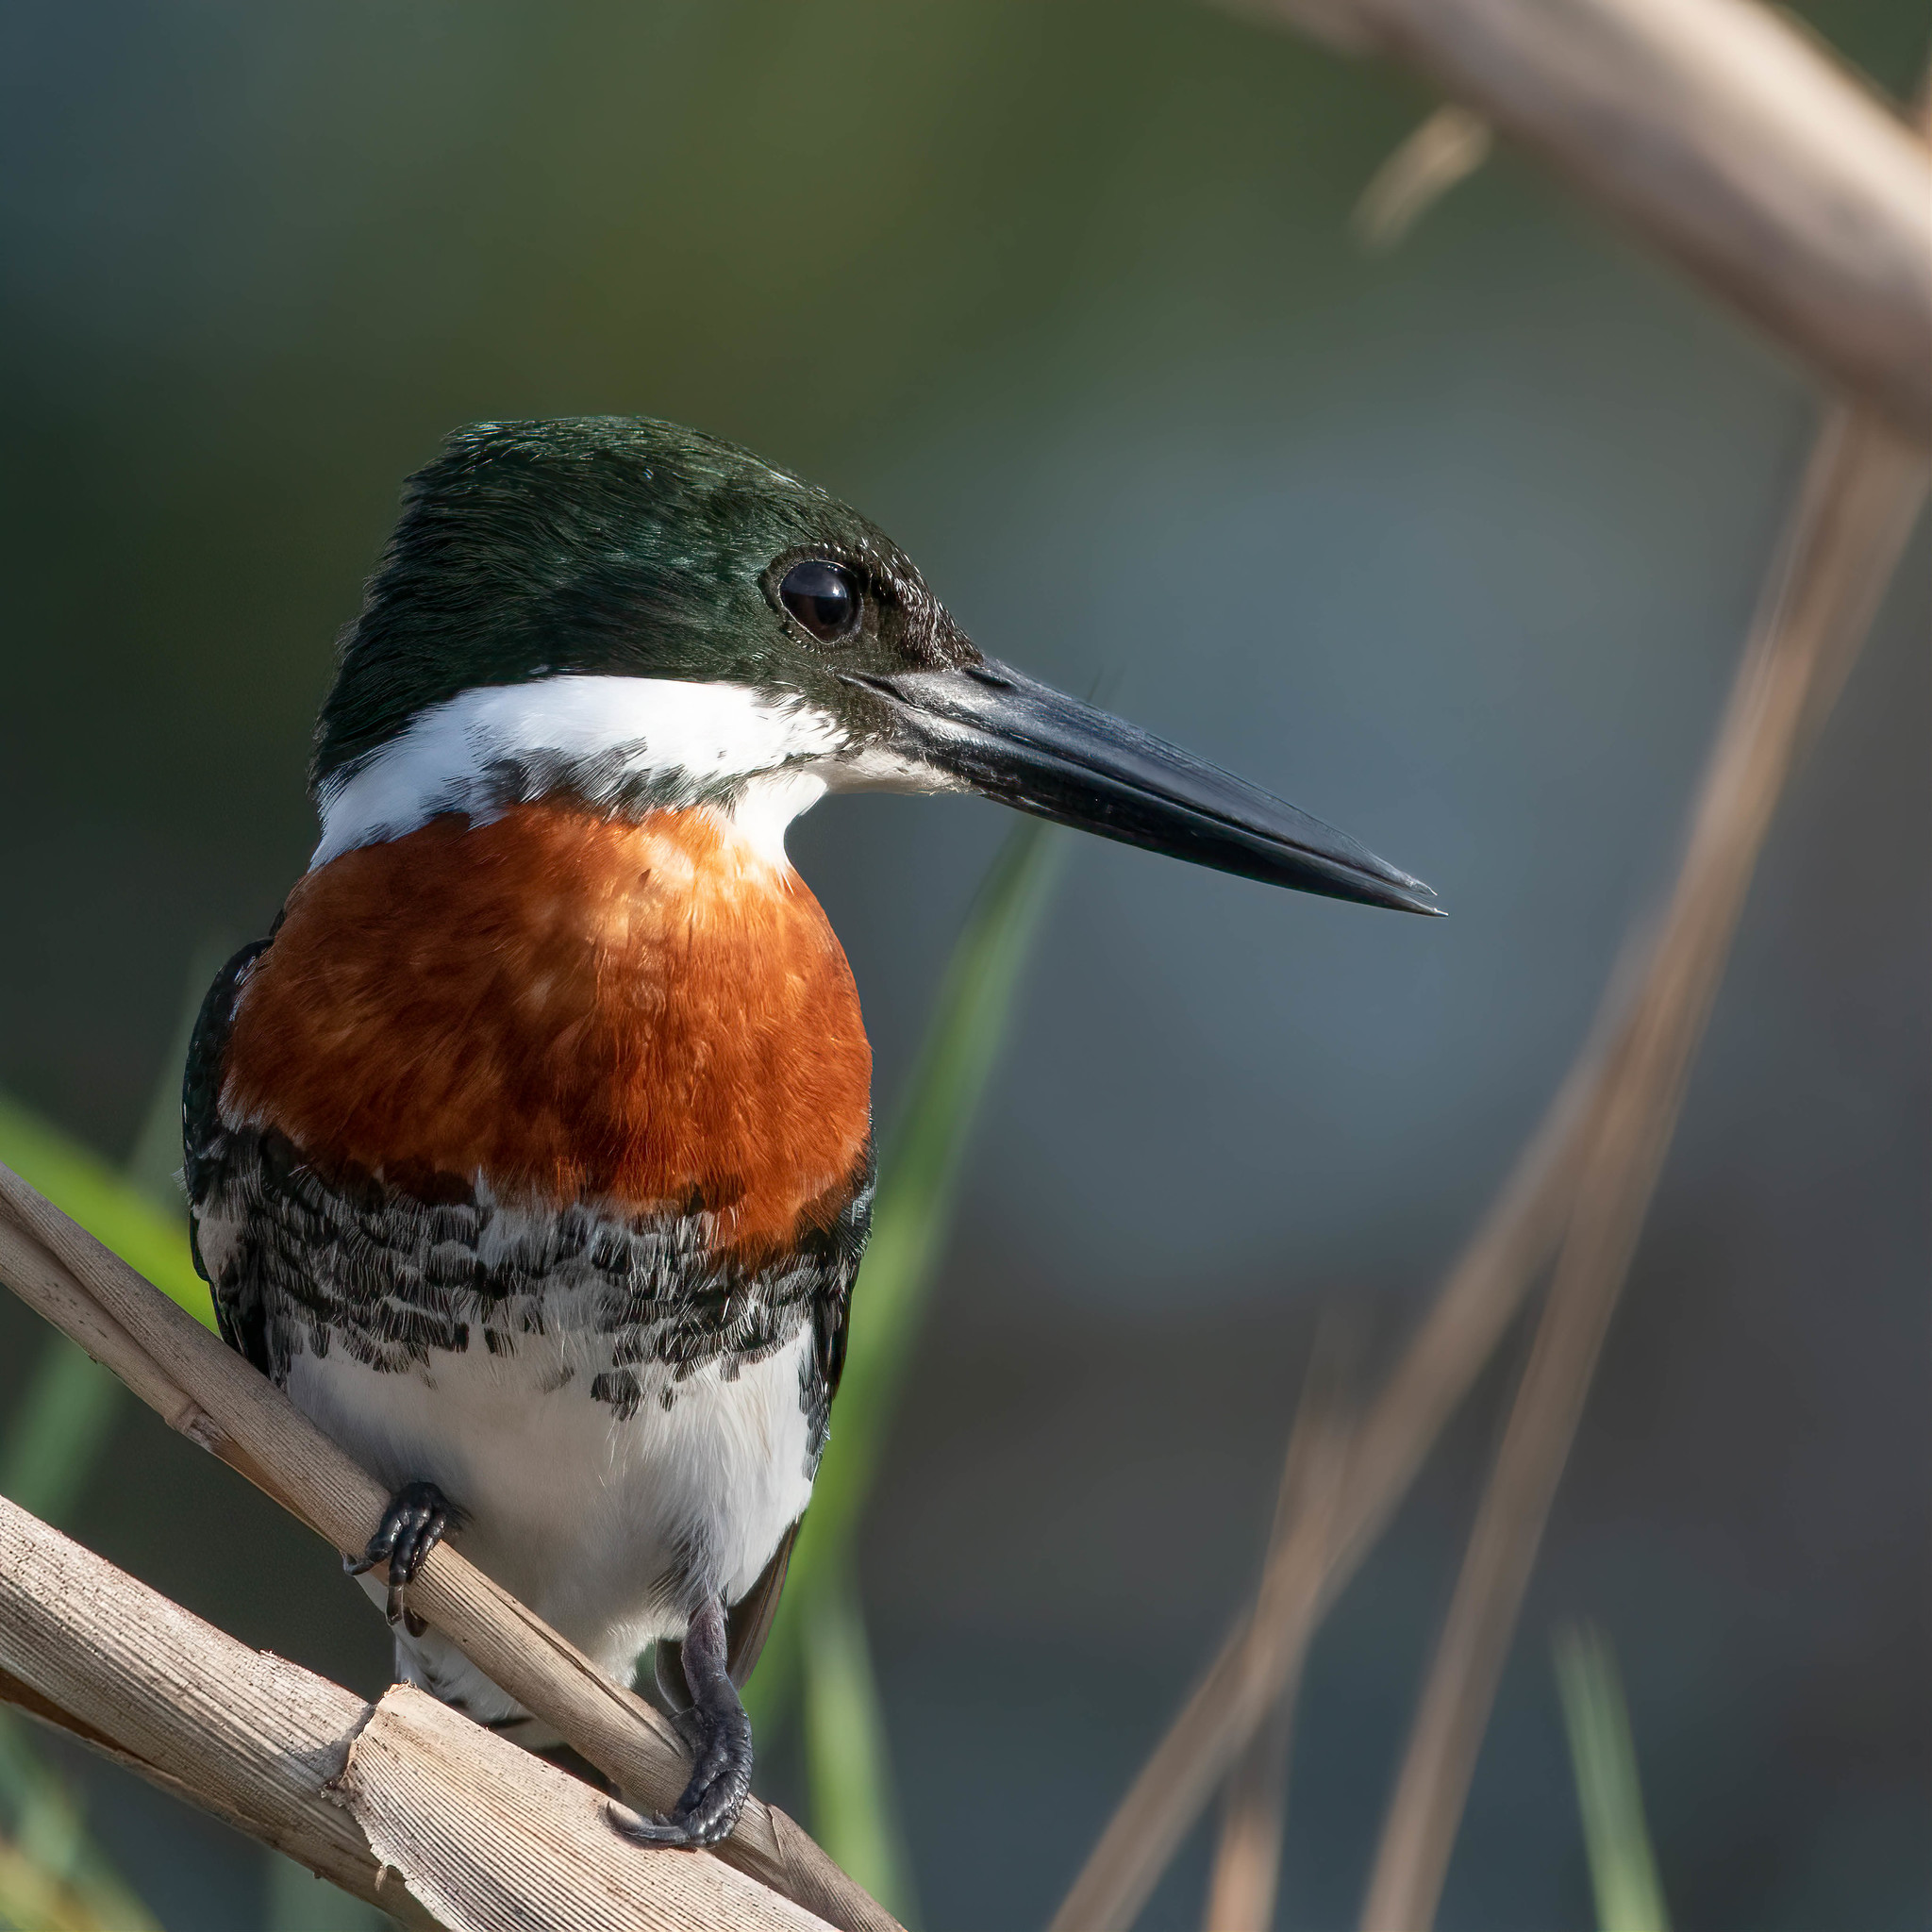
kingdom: Animalia
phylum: Chordata
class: Aves
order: Coraciiformes
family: Alcedinidae
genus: Chloroceryle
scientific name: Chloroceryle americana
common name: Green kingfisher
